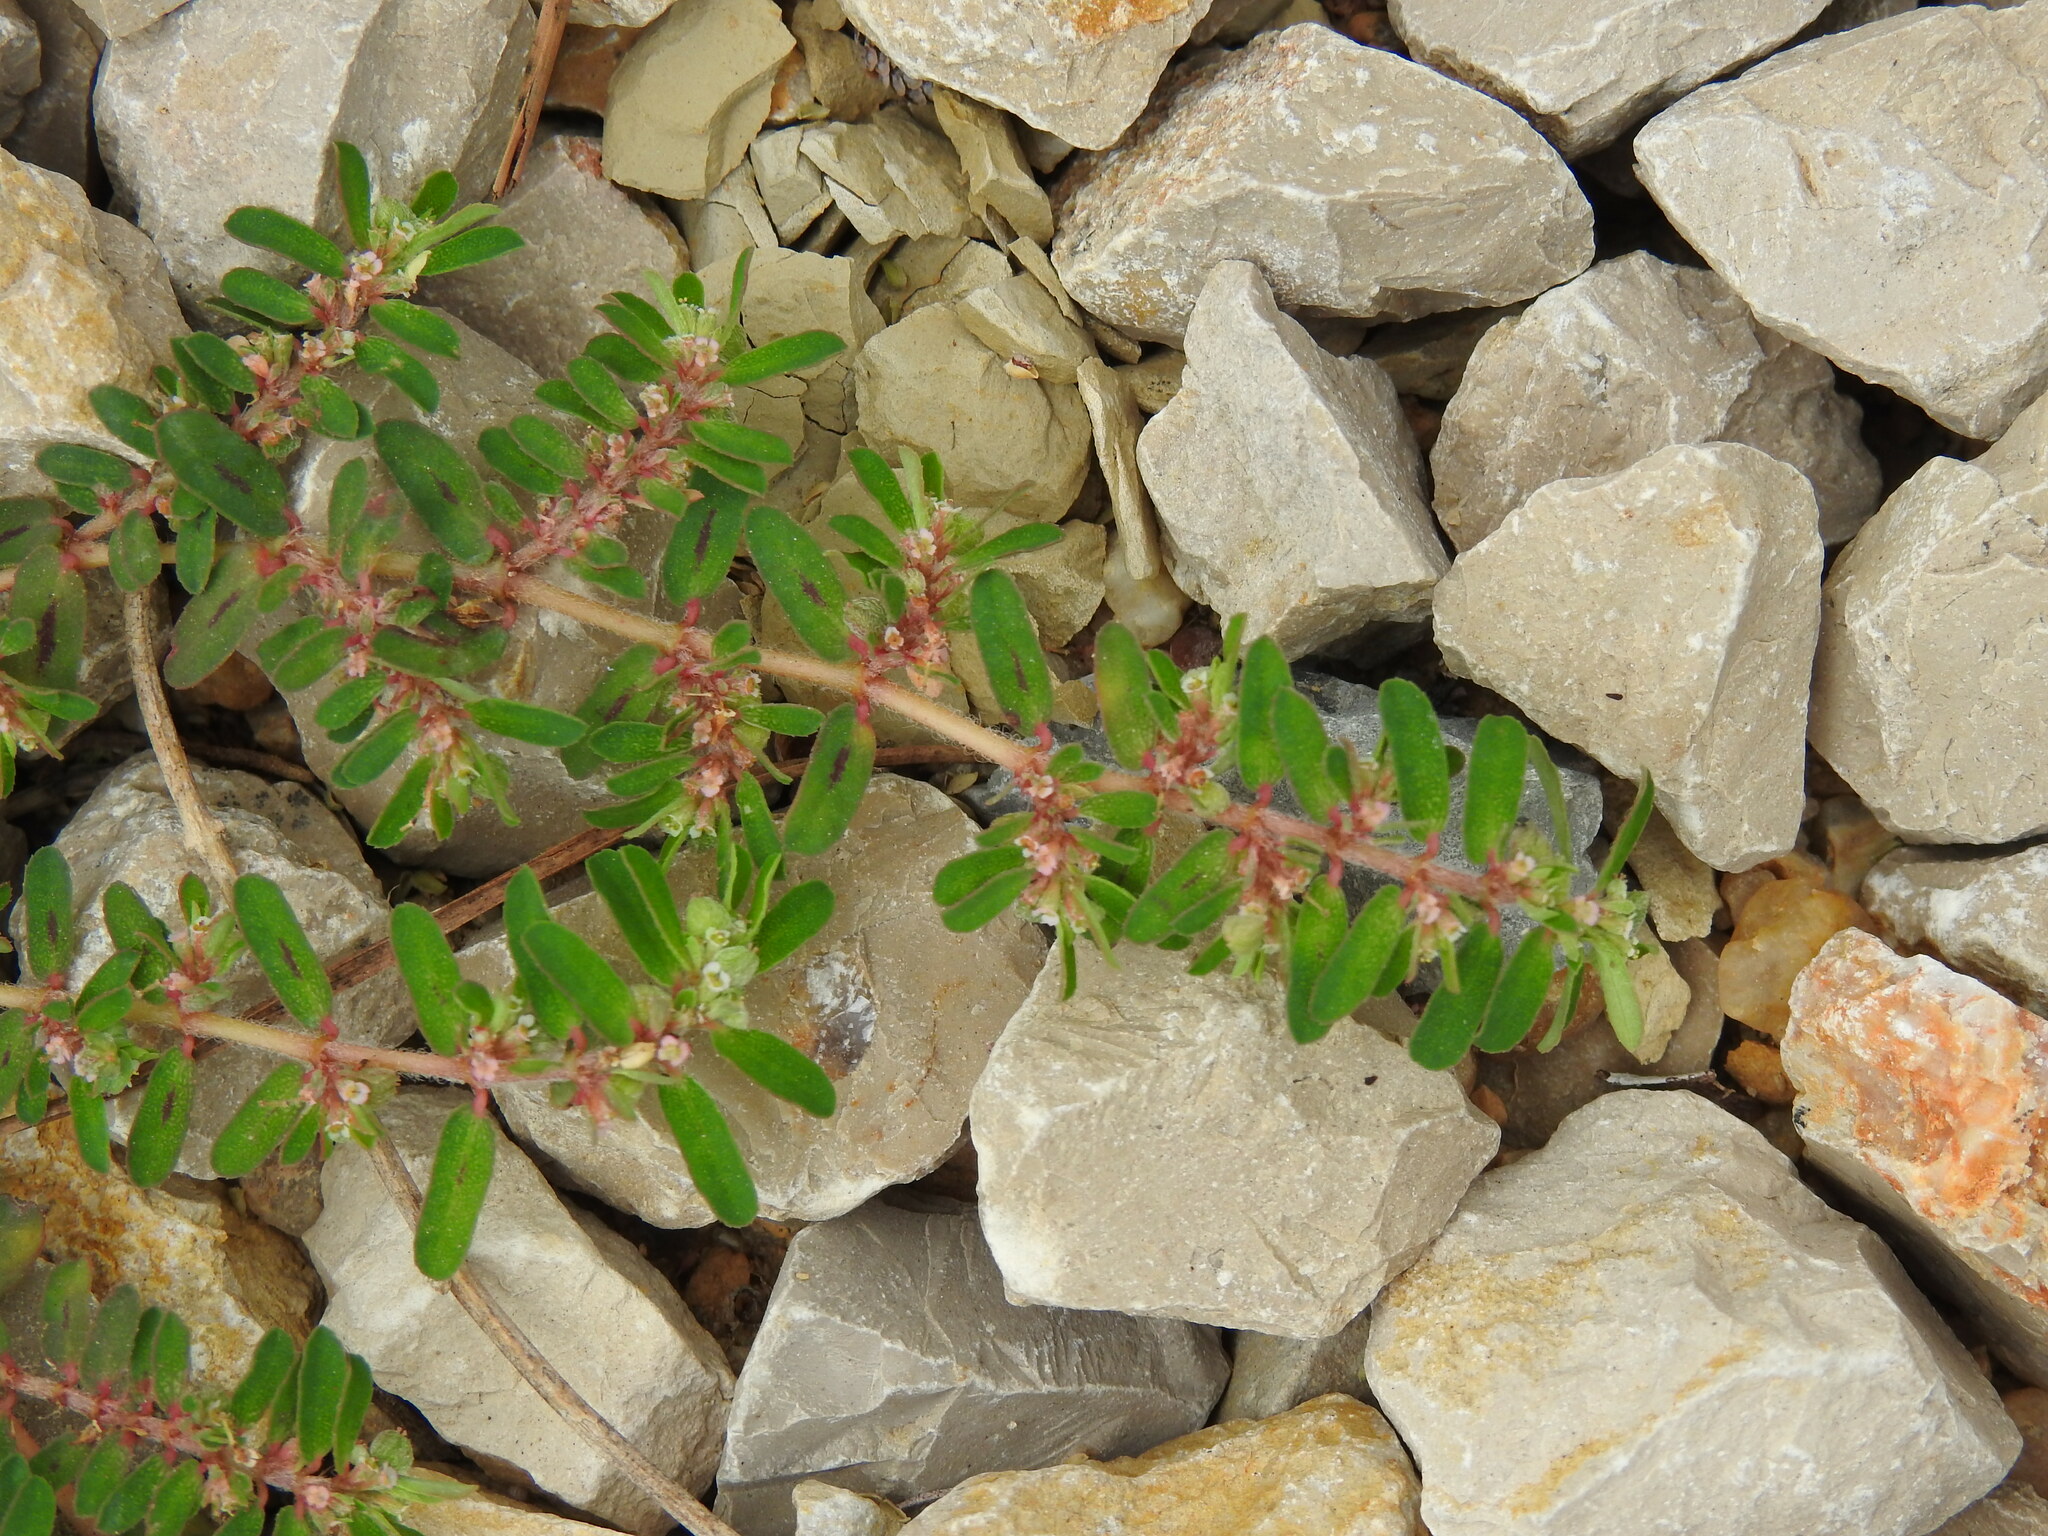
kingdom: Plantae
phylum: Tracheophyta
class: Magnoliopsida
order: Malpighiales
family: Euphorbiaceae
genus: Euphorbia
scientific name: Euphorbia maculata
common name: Spotted spurge
